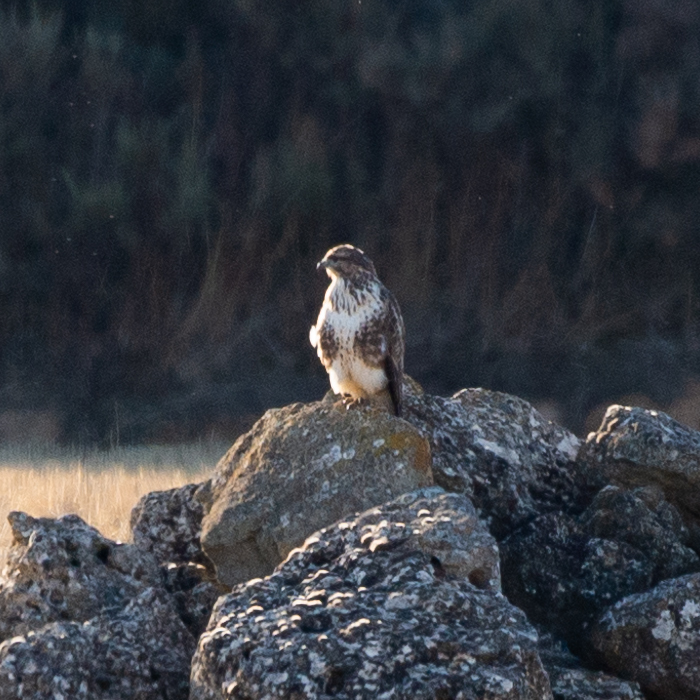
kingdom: Animalia
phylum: Chordata
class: Aves
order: Accipitriformes
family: Accipitridae
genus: Buteo
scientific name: Buteo buteo
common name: Common buzzard
